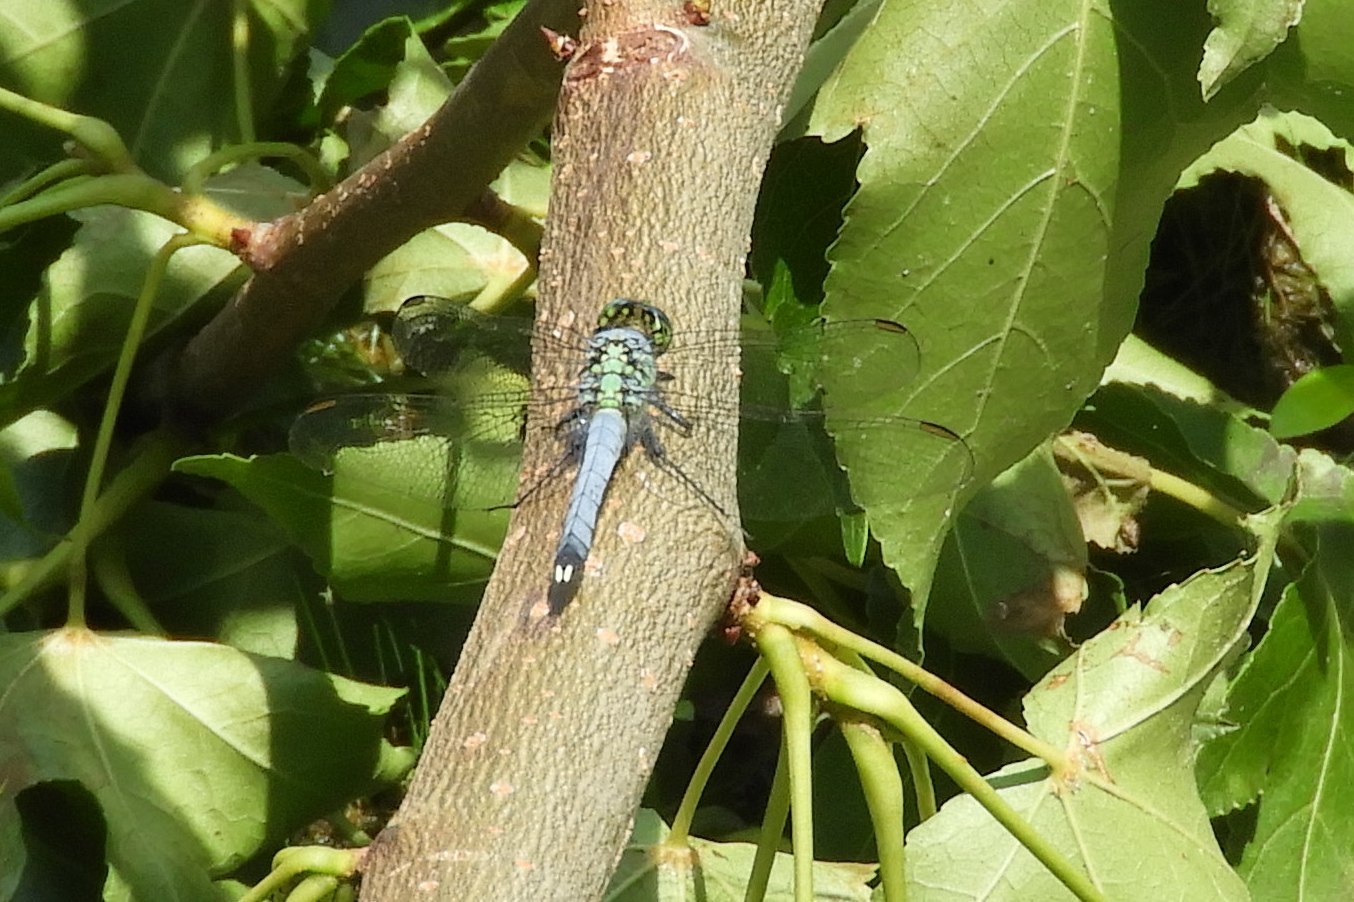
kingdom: Animalia
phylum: Arthropoda
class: Insecta
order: Odonata
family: Libellulidae
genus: Erythemis
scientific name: Erythemis simplicicollis
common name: Eastern pondhawk
